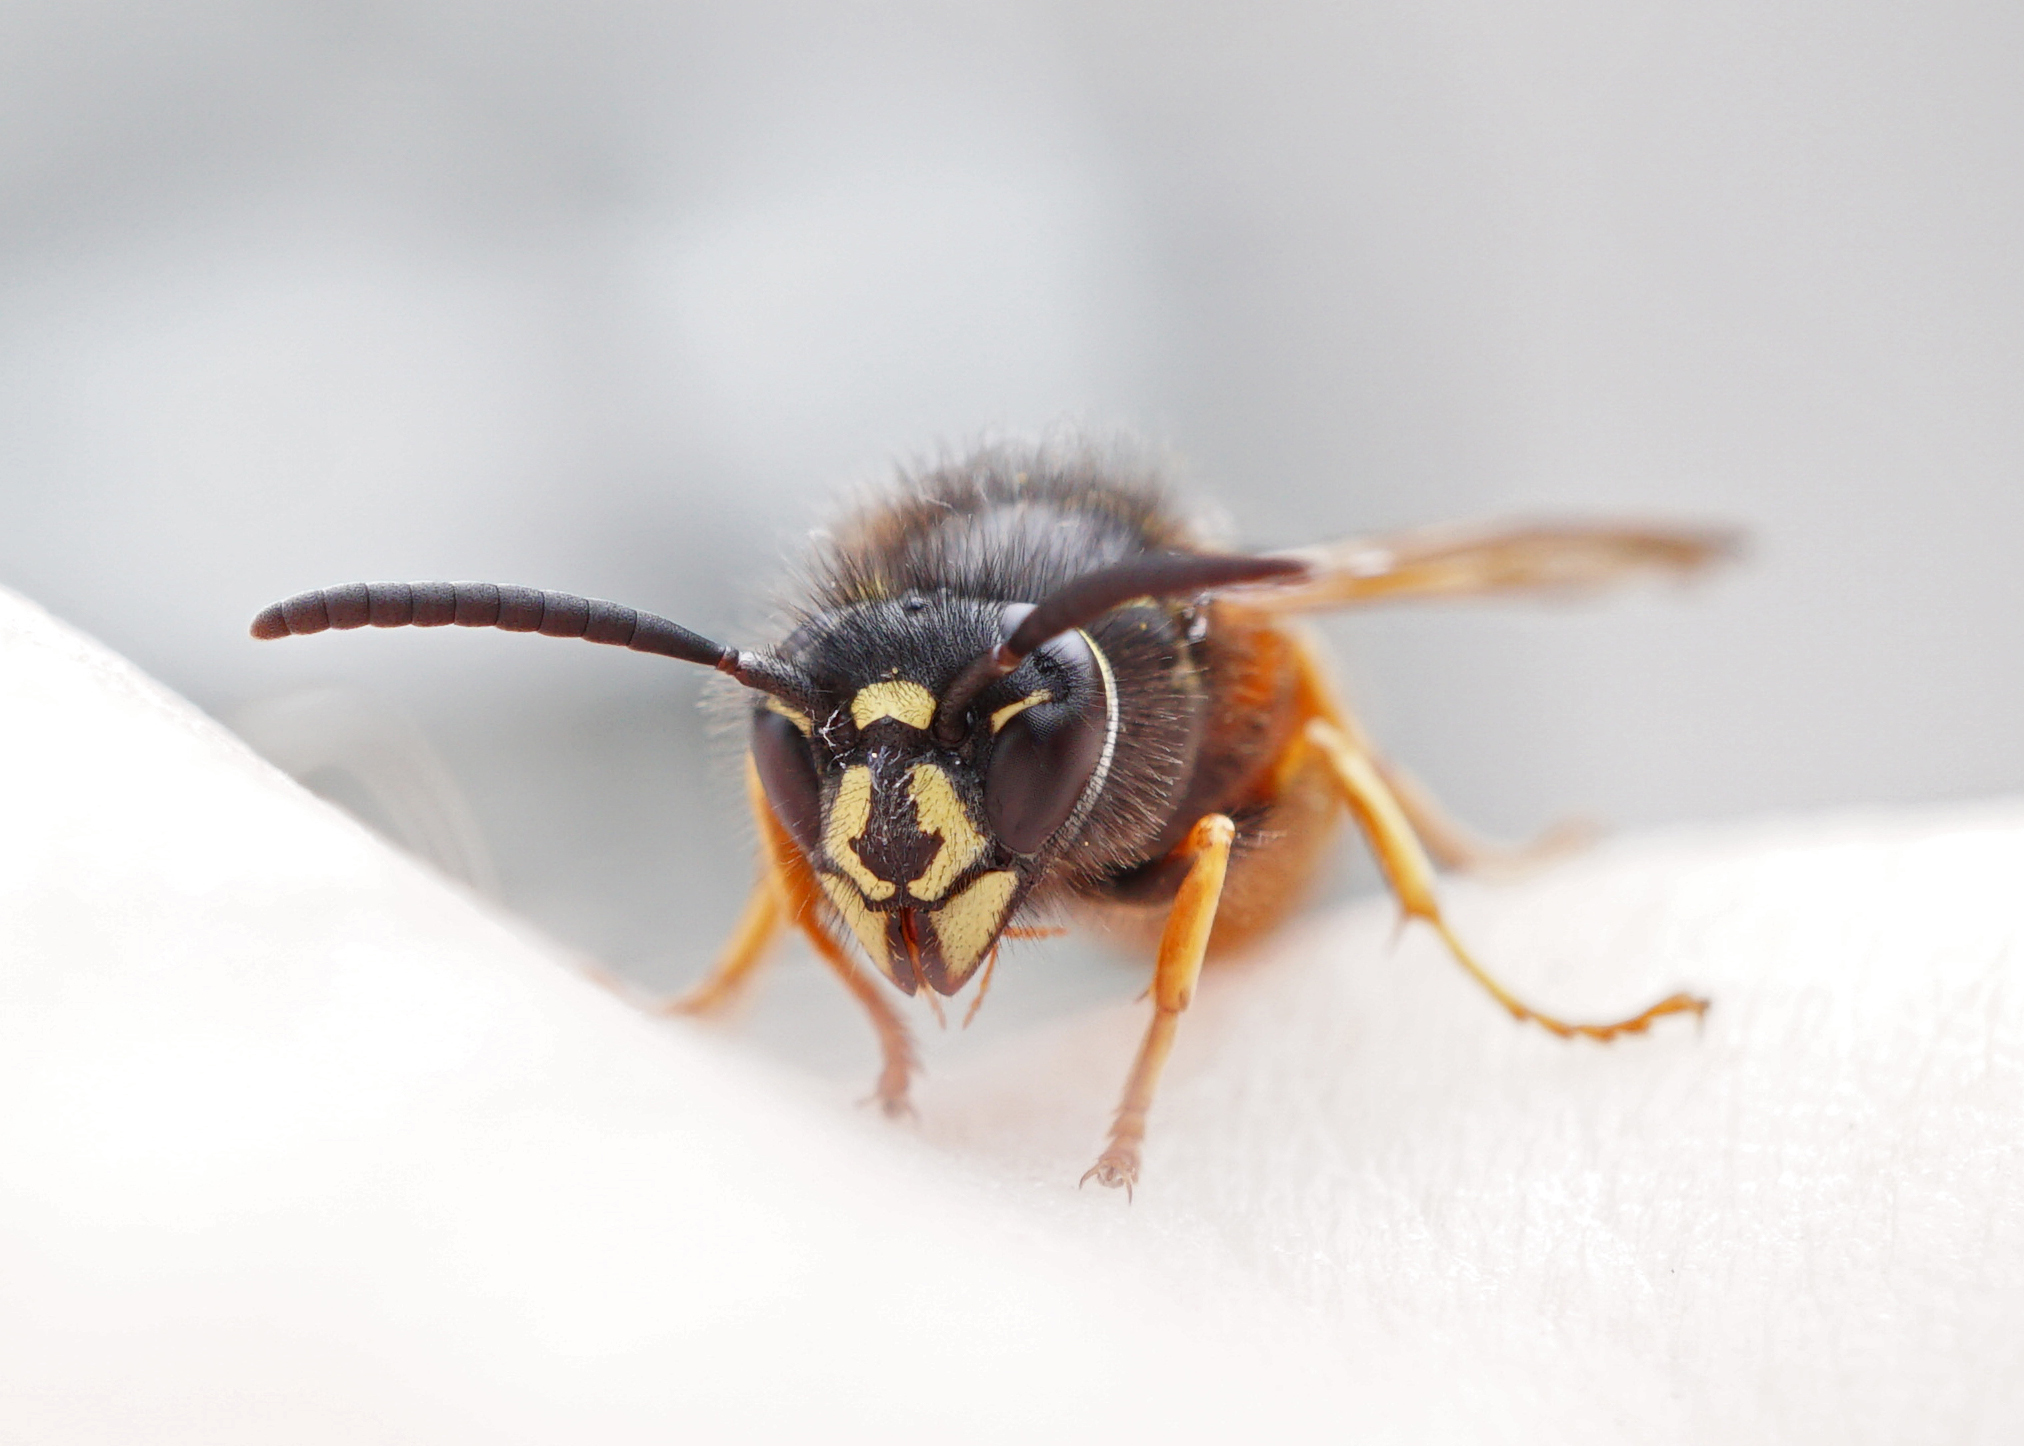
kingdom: Animalia
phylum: Arthropoda
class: Insecta
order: Hymenoptera
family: Vespidae
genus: Vespula
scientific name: Vespula rufa
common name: Red wasp
